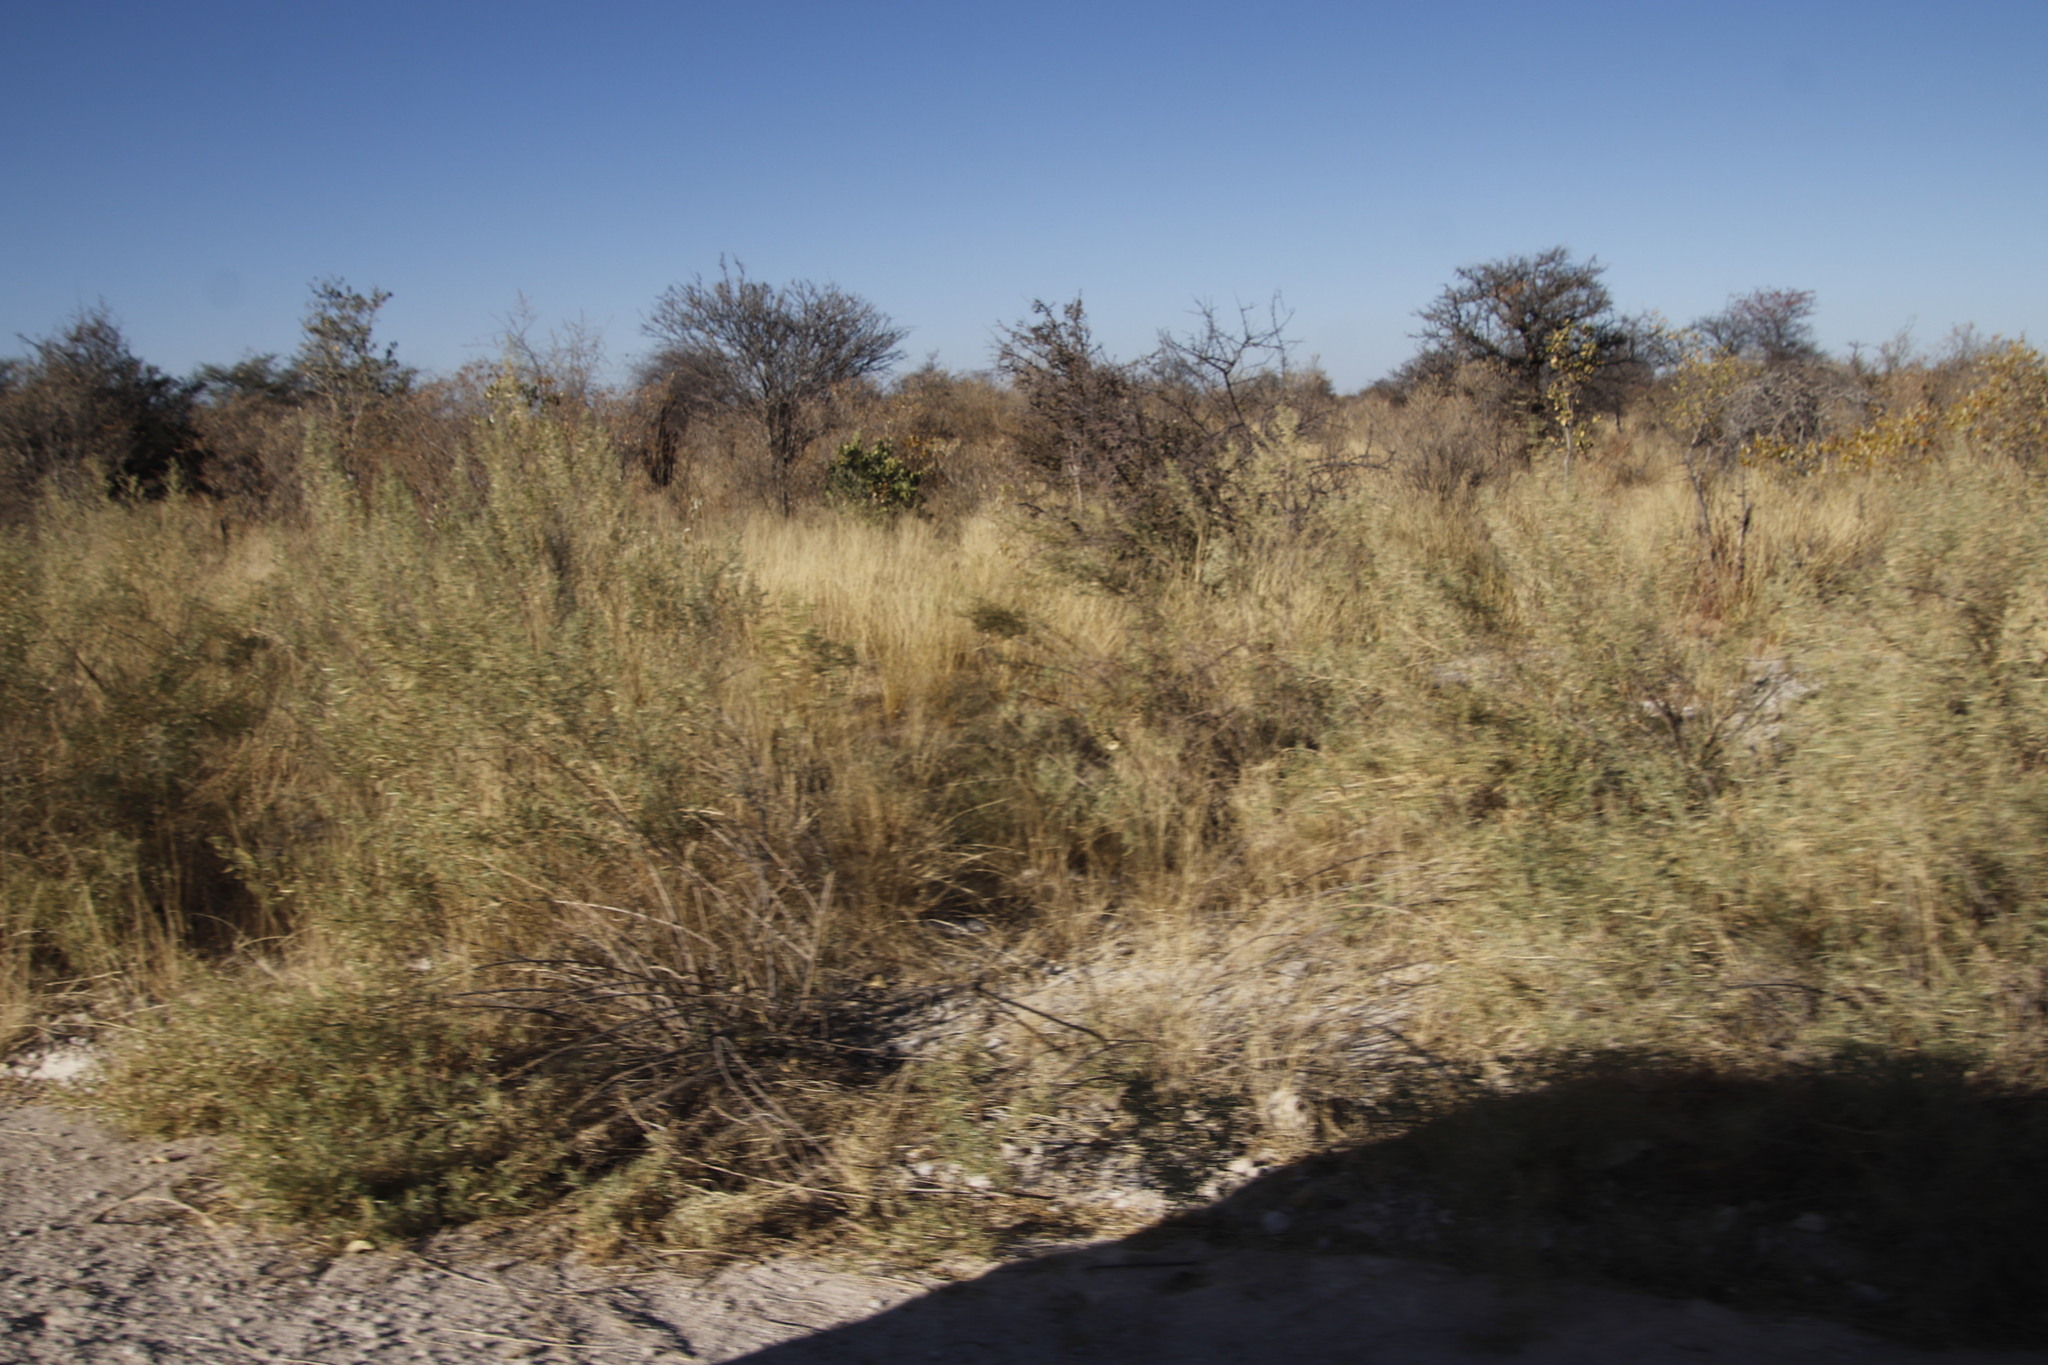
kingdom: Plantae
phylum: Tracheophyta
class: Magnoliopsida
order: Asterales
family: Asteraceae
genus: Pechuel-loeschea
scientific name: Pechuel-loeschea leubnitziae
